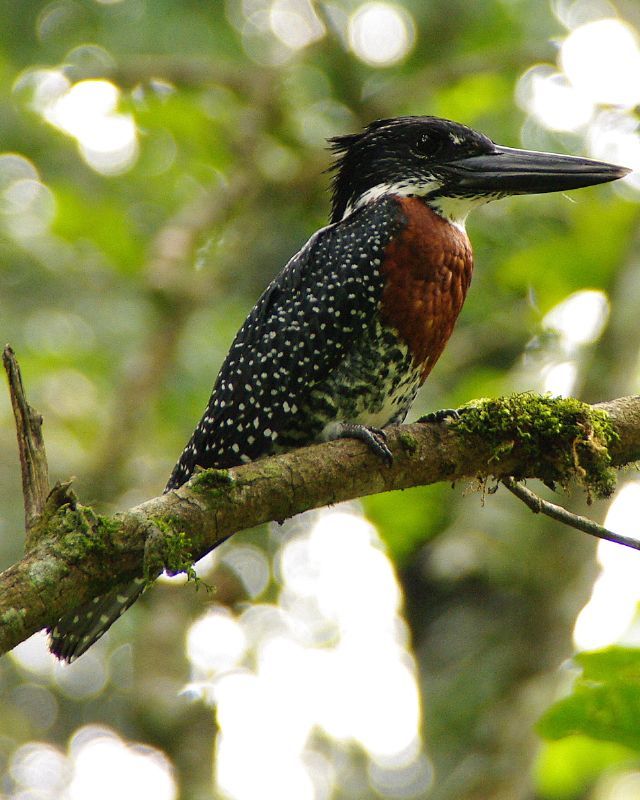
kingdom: Animalia
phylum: Chordata
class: Aves
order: Coraciiformes
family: Alcedinidae
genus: Megaceryle
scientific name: Megaceryle maxima
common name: Giant kingfisher
